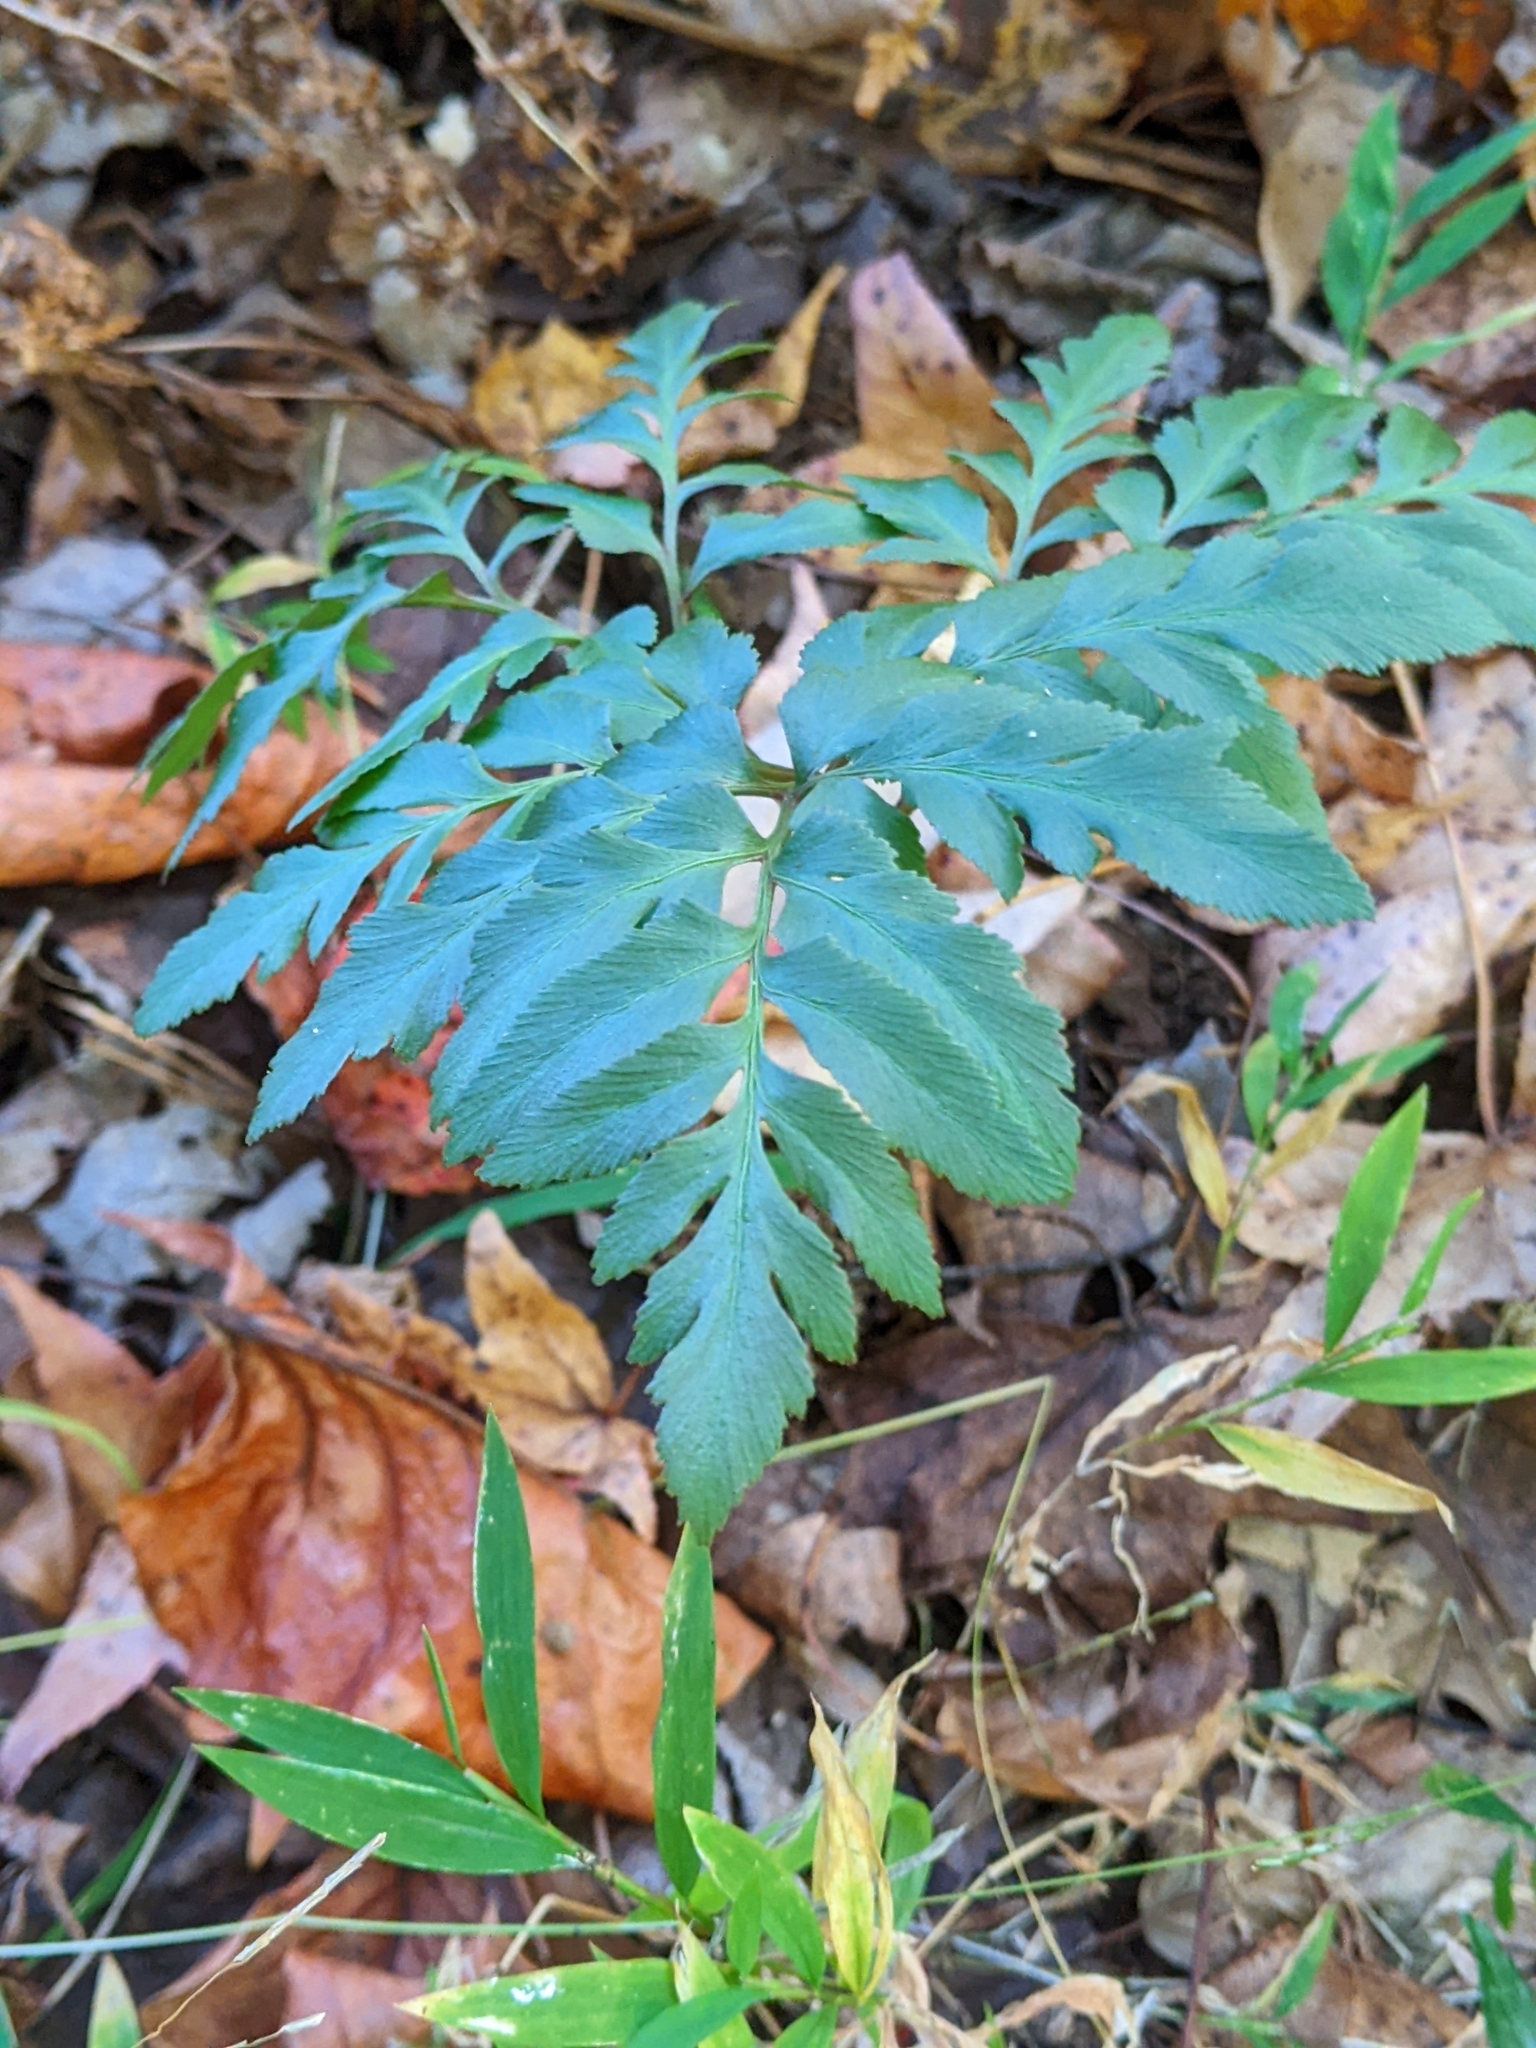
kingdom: Plantae
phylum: Tracheophyta
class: Polypodiopsida
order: Ophioglossales
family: Ophioglossaceae
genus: Sceptridium
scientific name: Sceptridium dissectum
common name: Cut-leaved grapefern
